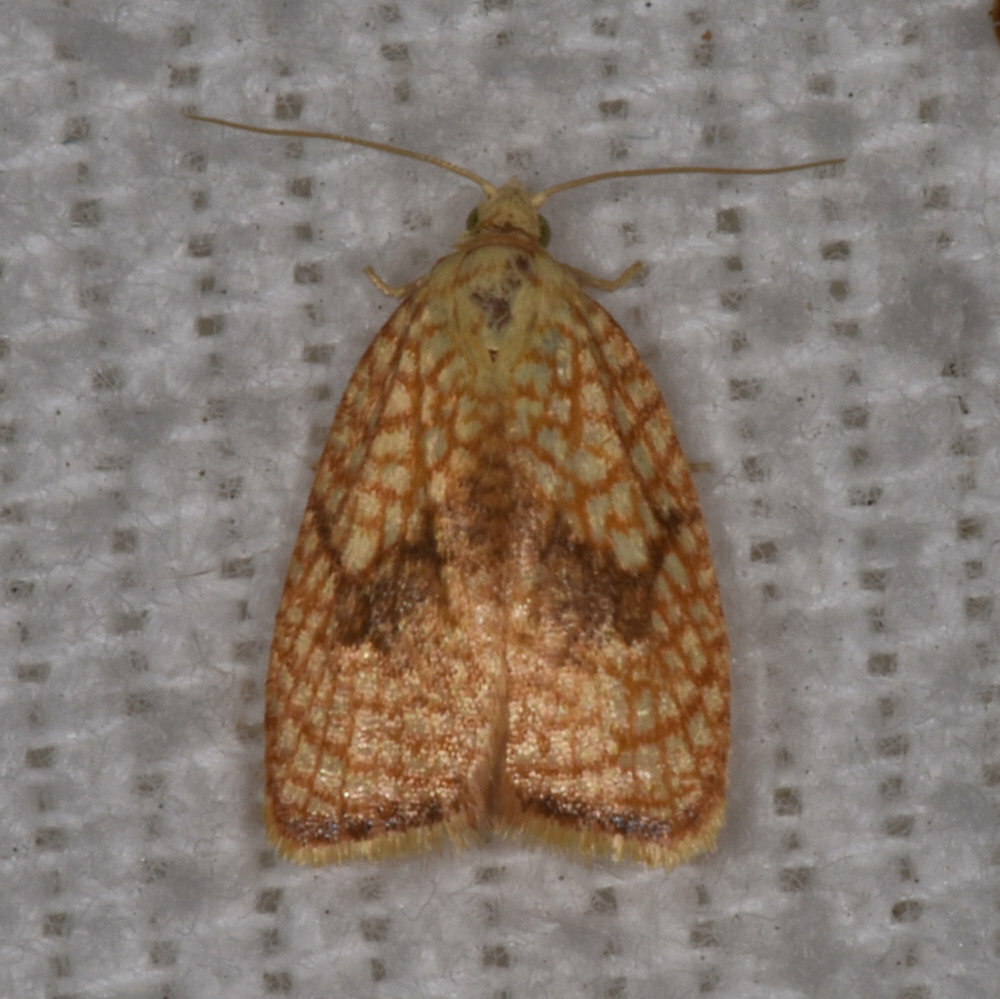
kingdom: Animalia
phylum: Arthropoda
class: Insecta
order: Lepidoptera
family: Tortricidae
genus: Acleris
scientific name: Acleris forsskaleana
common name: Maple button
